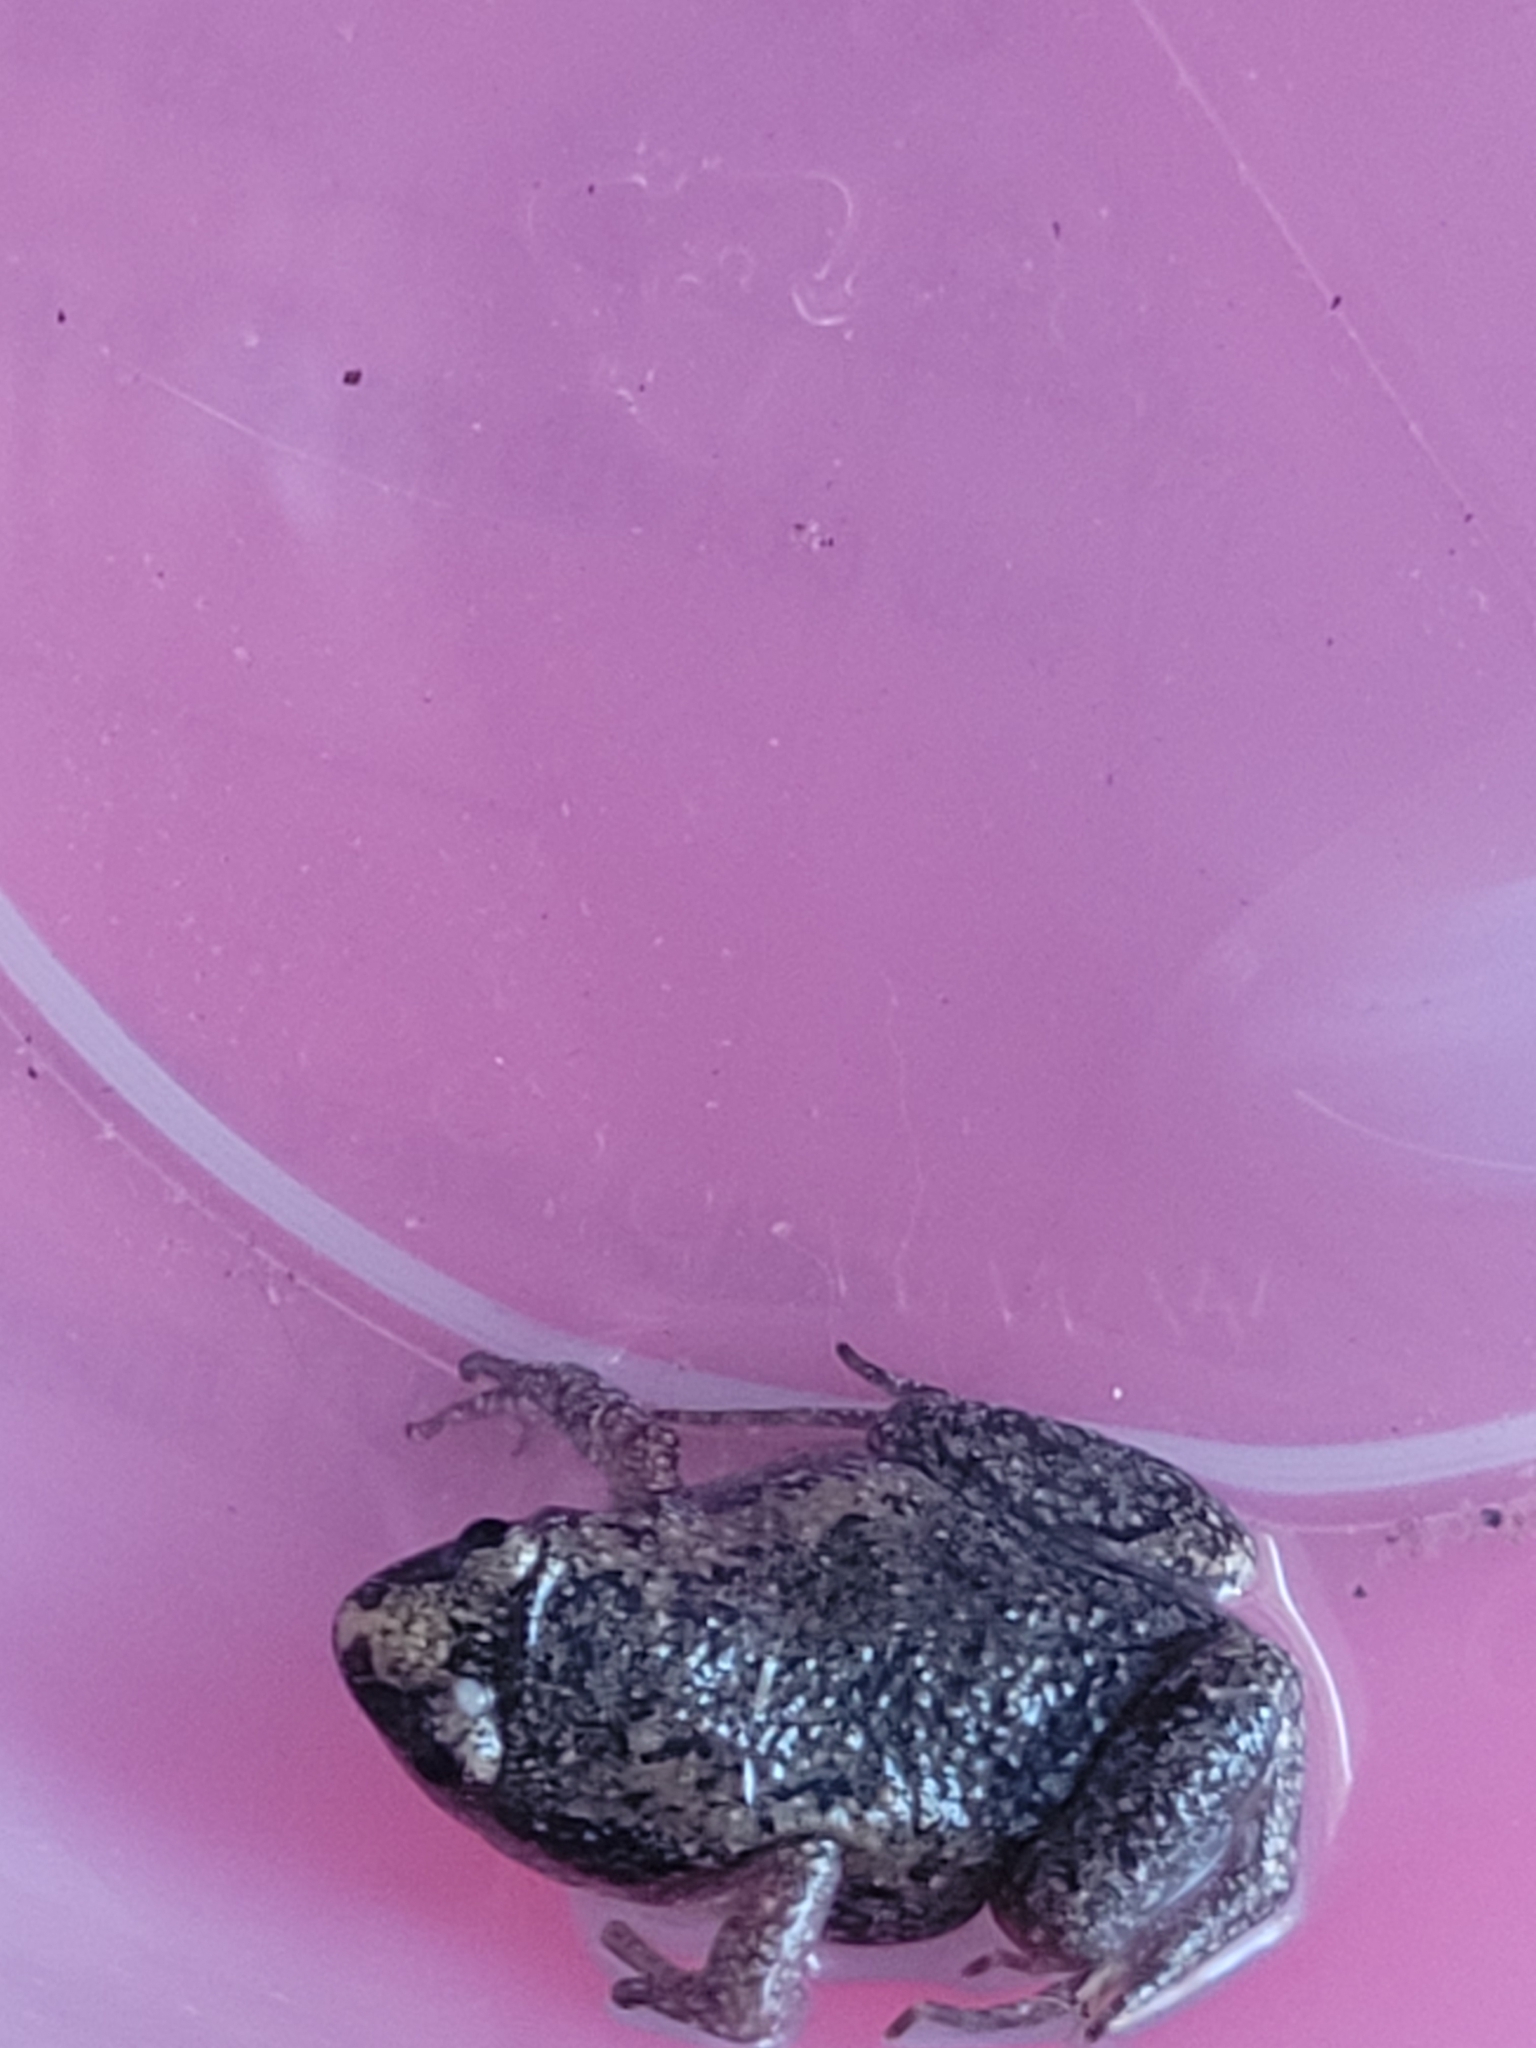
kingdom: Animalia
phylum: Chordata
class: Amphibia
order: Anura
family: Microhylidae
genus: Gastrophryne
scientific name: Gastrophryne carolinensis
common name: Eastern narrowmouth toad
